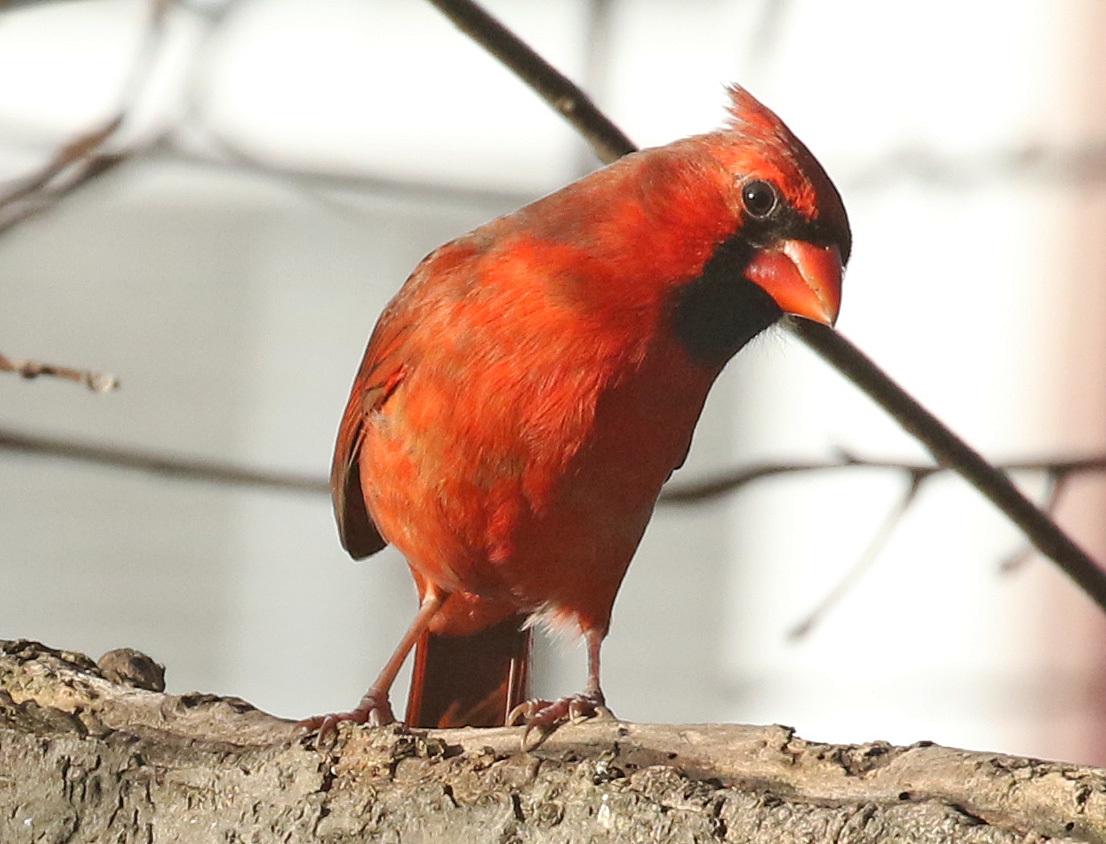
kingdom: Animalia
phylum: Chordata
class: Aves
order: Passeriformes
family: Cardinalidae
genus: Cardinalis
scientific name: Cardinalis cardinalis
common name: Northern cardinal
